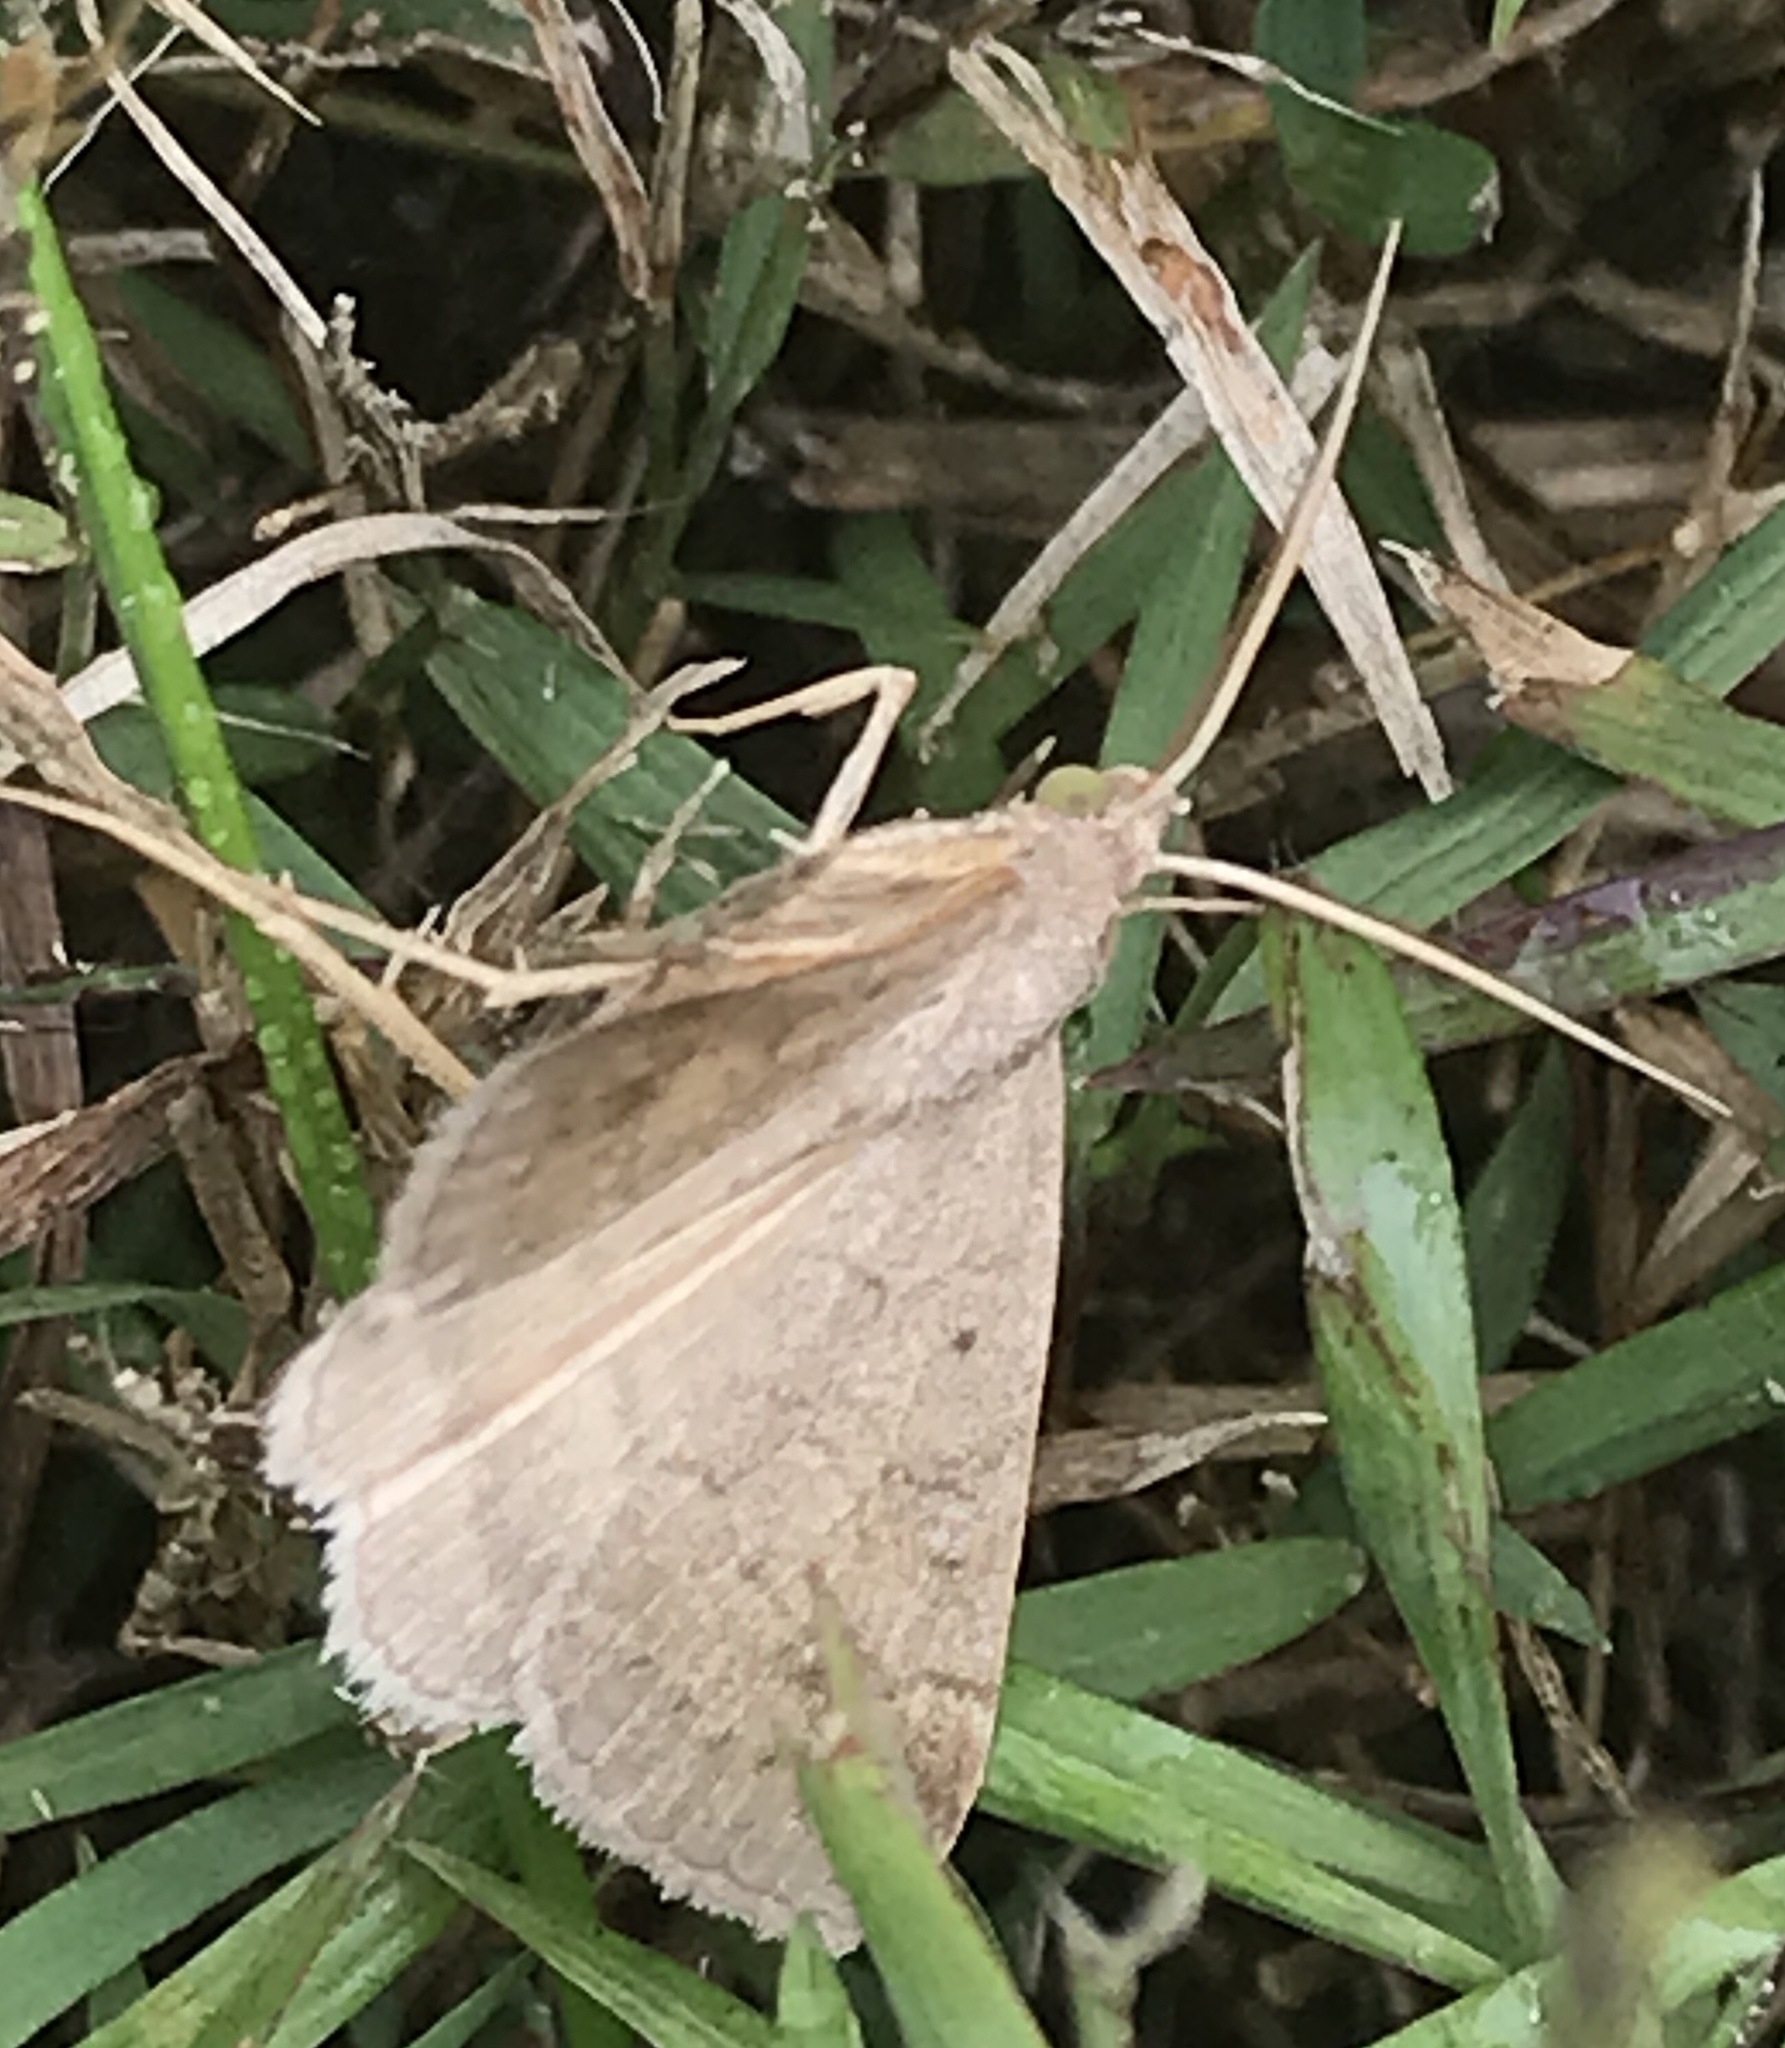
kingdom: Animalia
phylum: Arthropoda
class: Insecta
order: Lepidoptera
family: Erebidae
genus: Caenurgia
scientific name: Caenurgia chloropha
